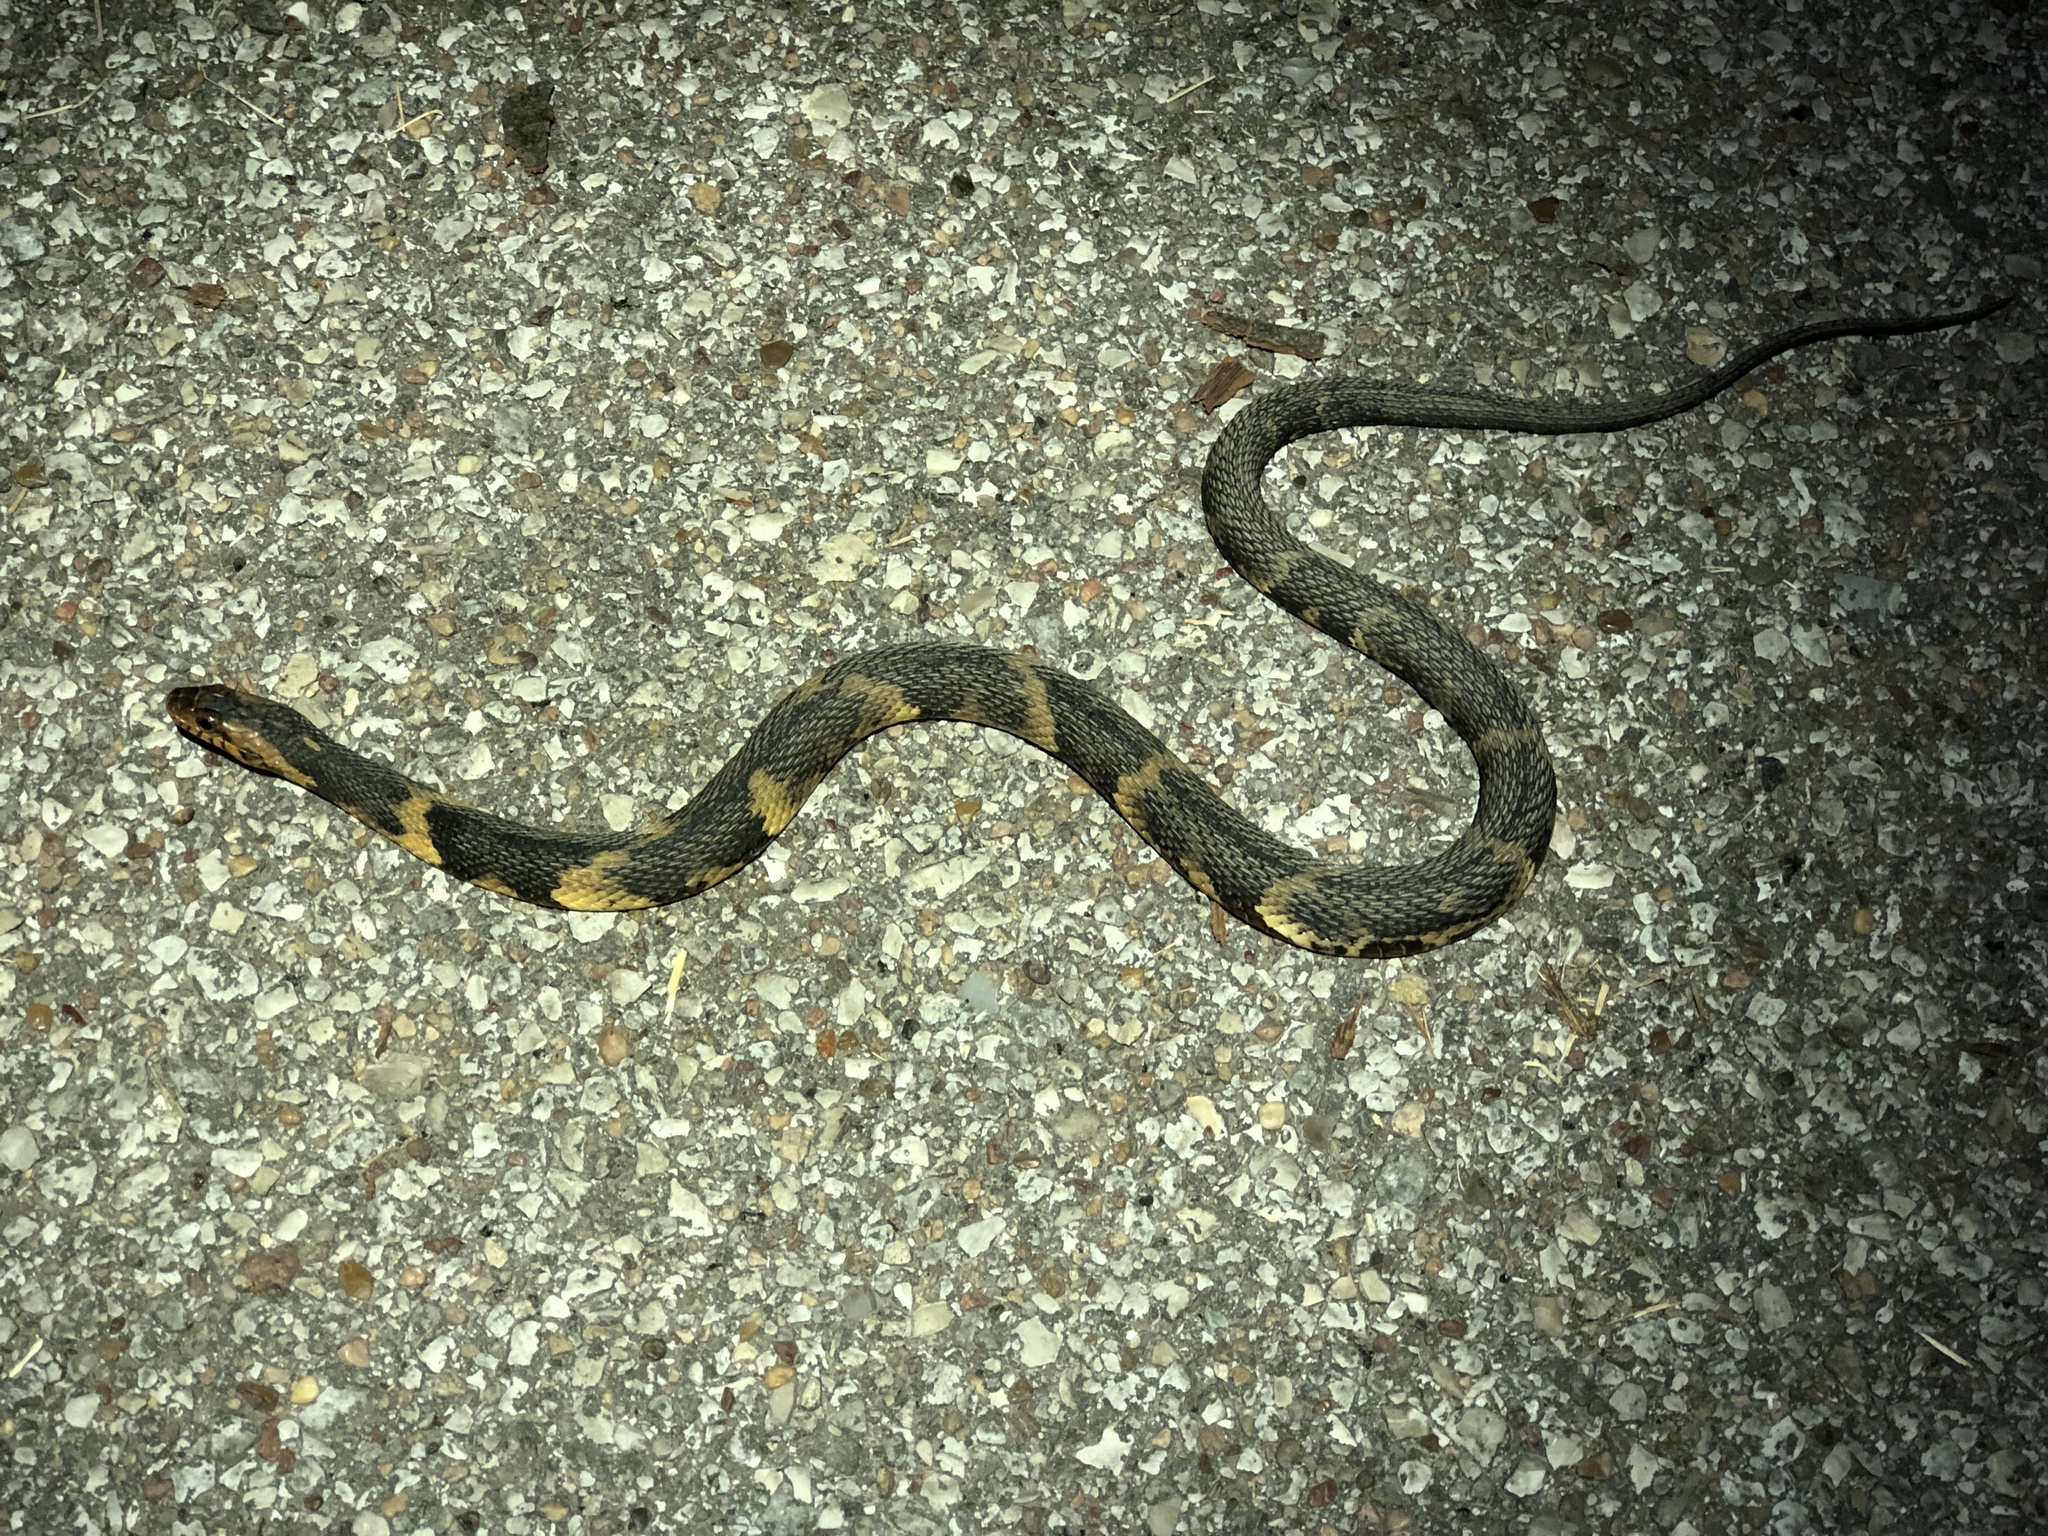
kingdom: Animalia
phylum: Chordata
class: Squamata
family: Colubridae
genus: Nerodia
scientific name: Nerodia fasciata
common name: Southern water snake
